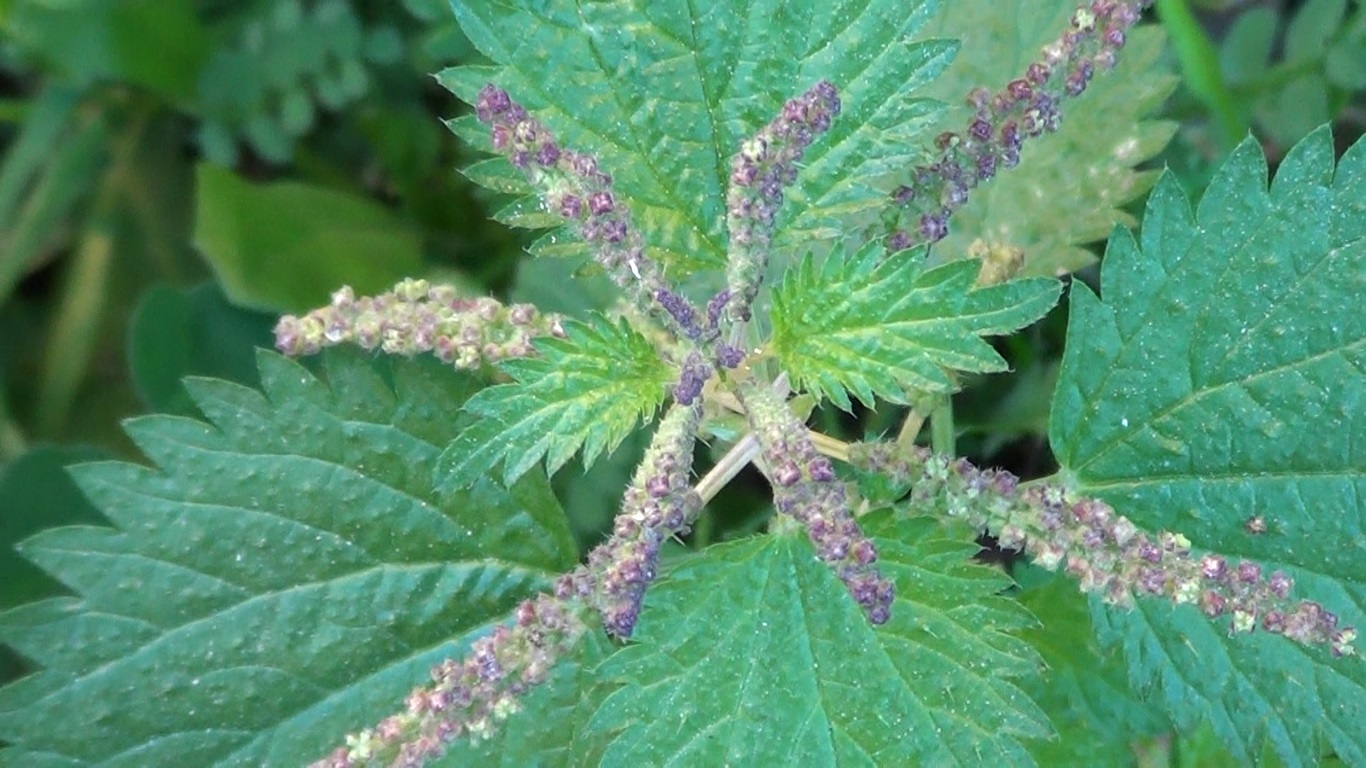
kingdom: Plantae
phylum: Tracheophyta
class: Magnoliopsida
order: Rosales
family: Urticaceae
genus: Urtica
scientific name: Urtica membranacea
